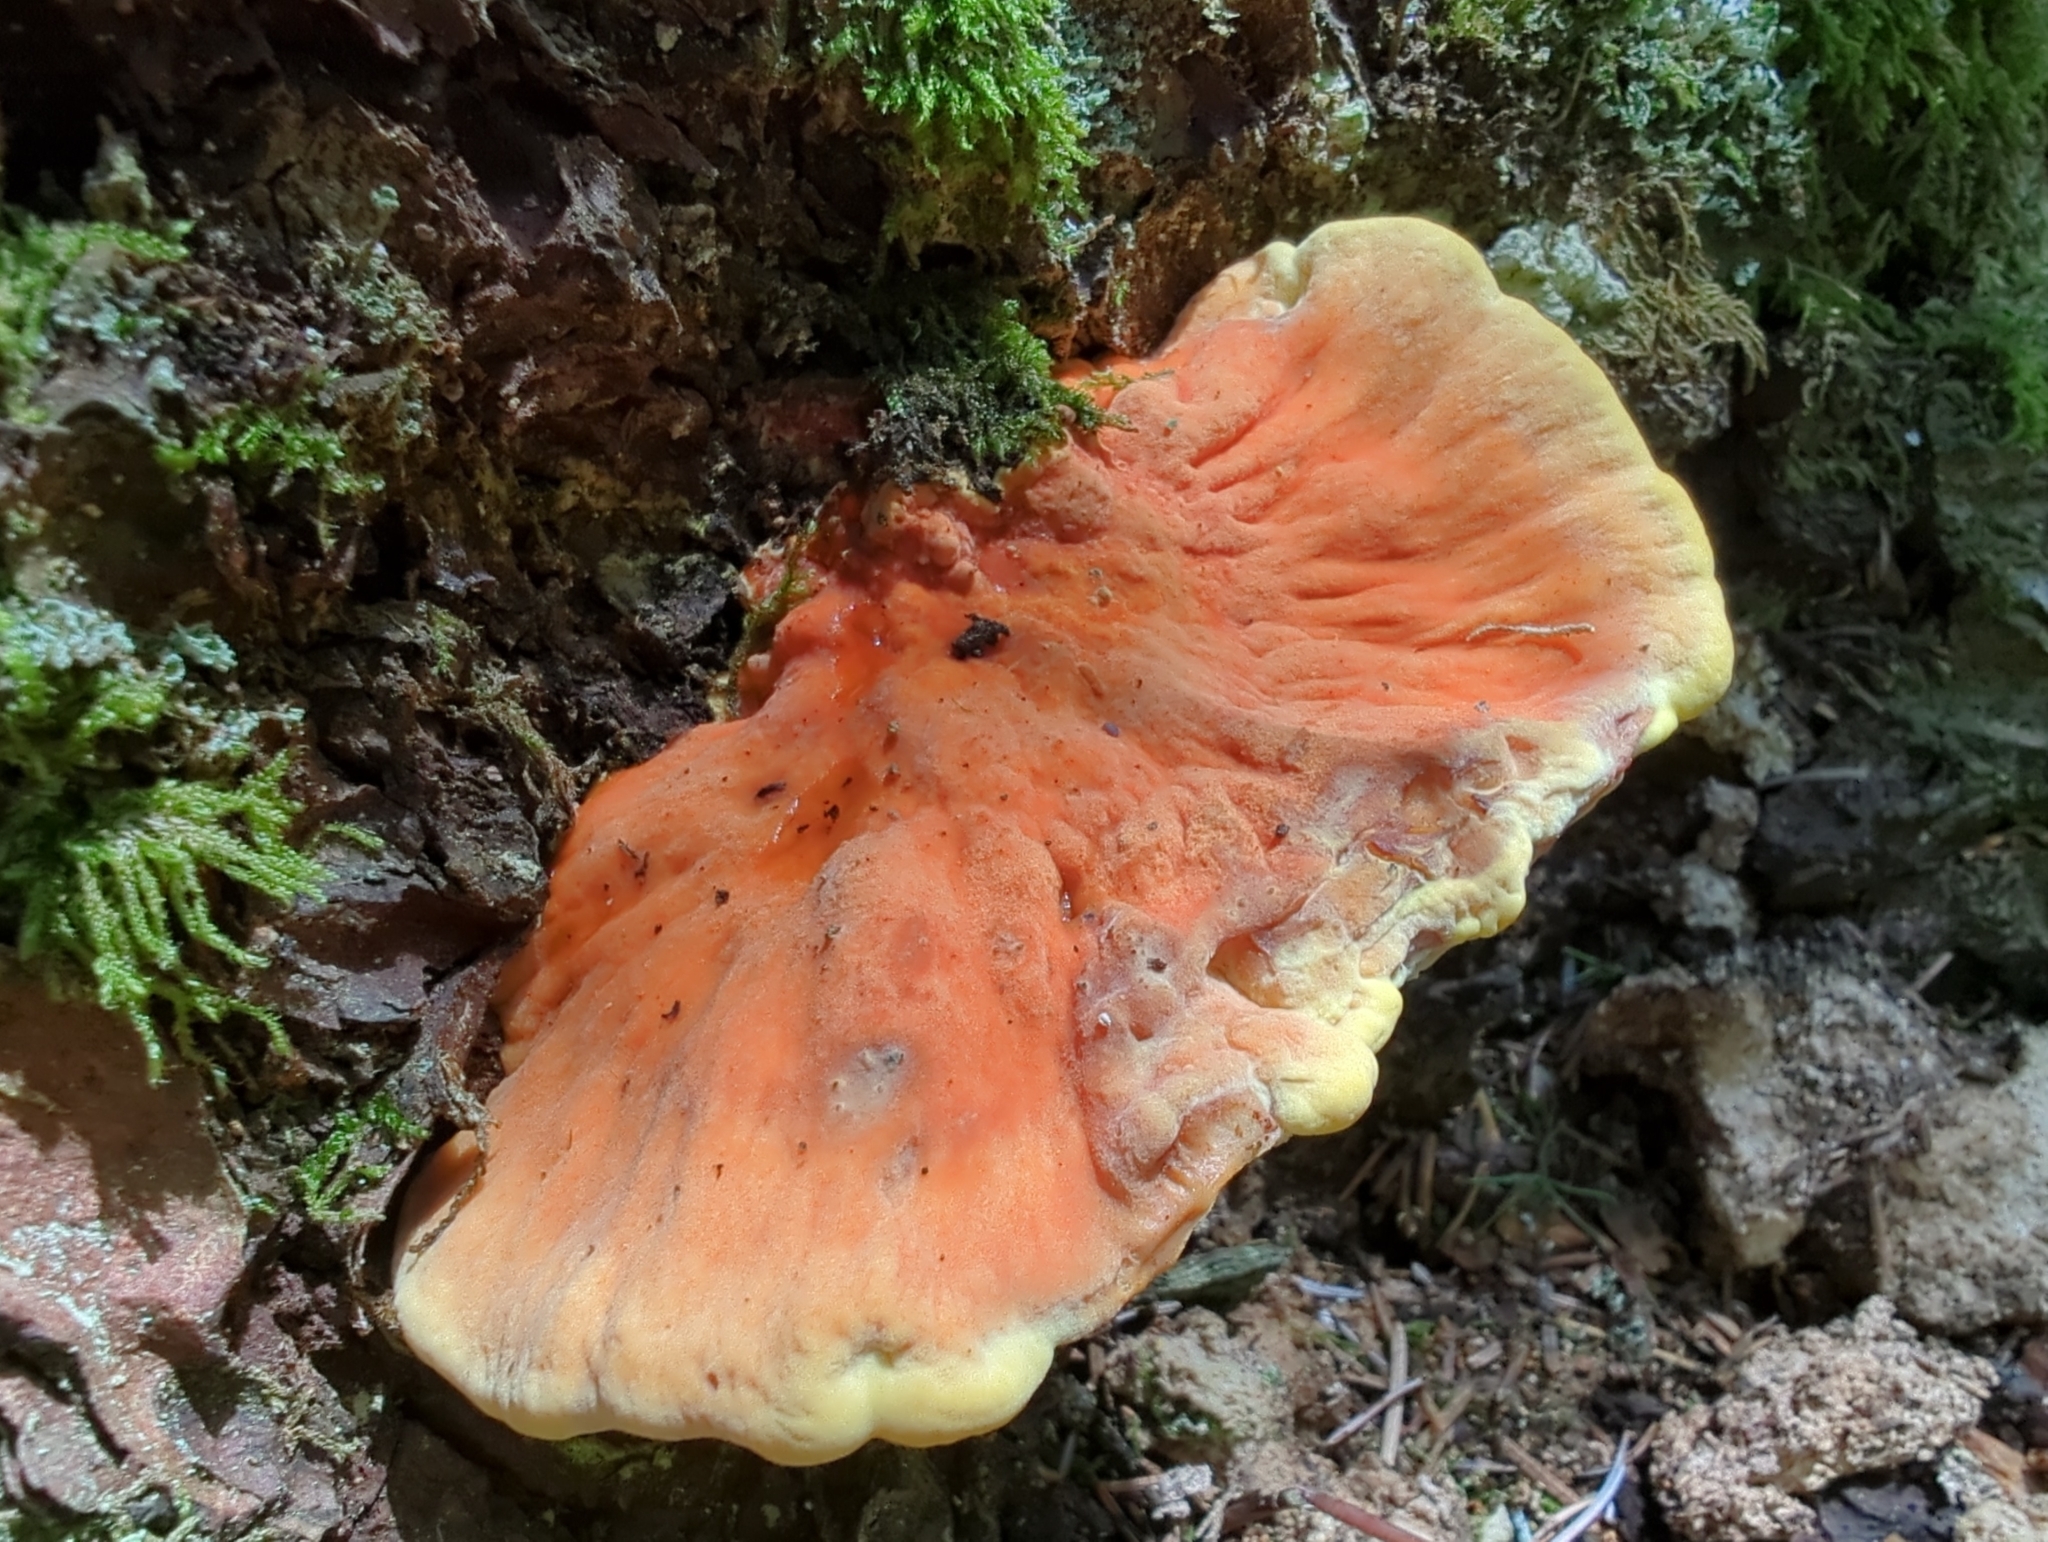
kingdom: Fungi
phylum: Basidiomycota
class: Agaricomycetes
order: Polyporales
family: Laetiporaceae
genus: Laetiporus
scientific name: Laetiporus conifericola
